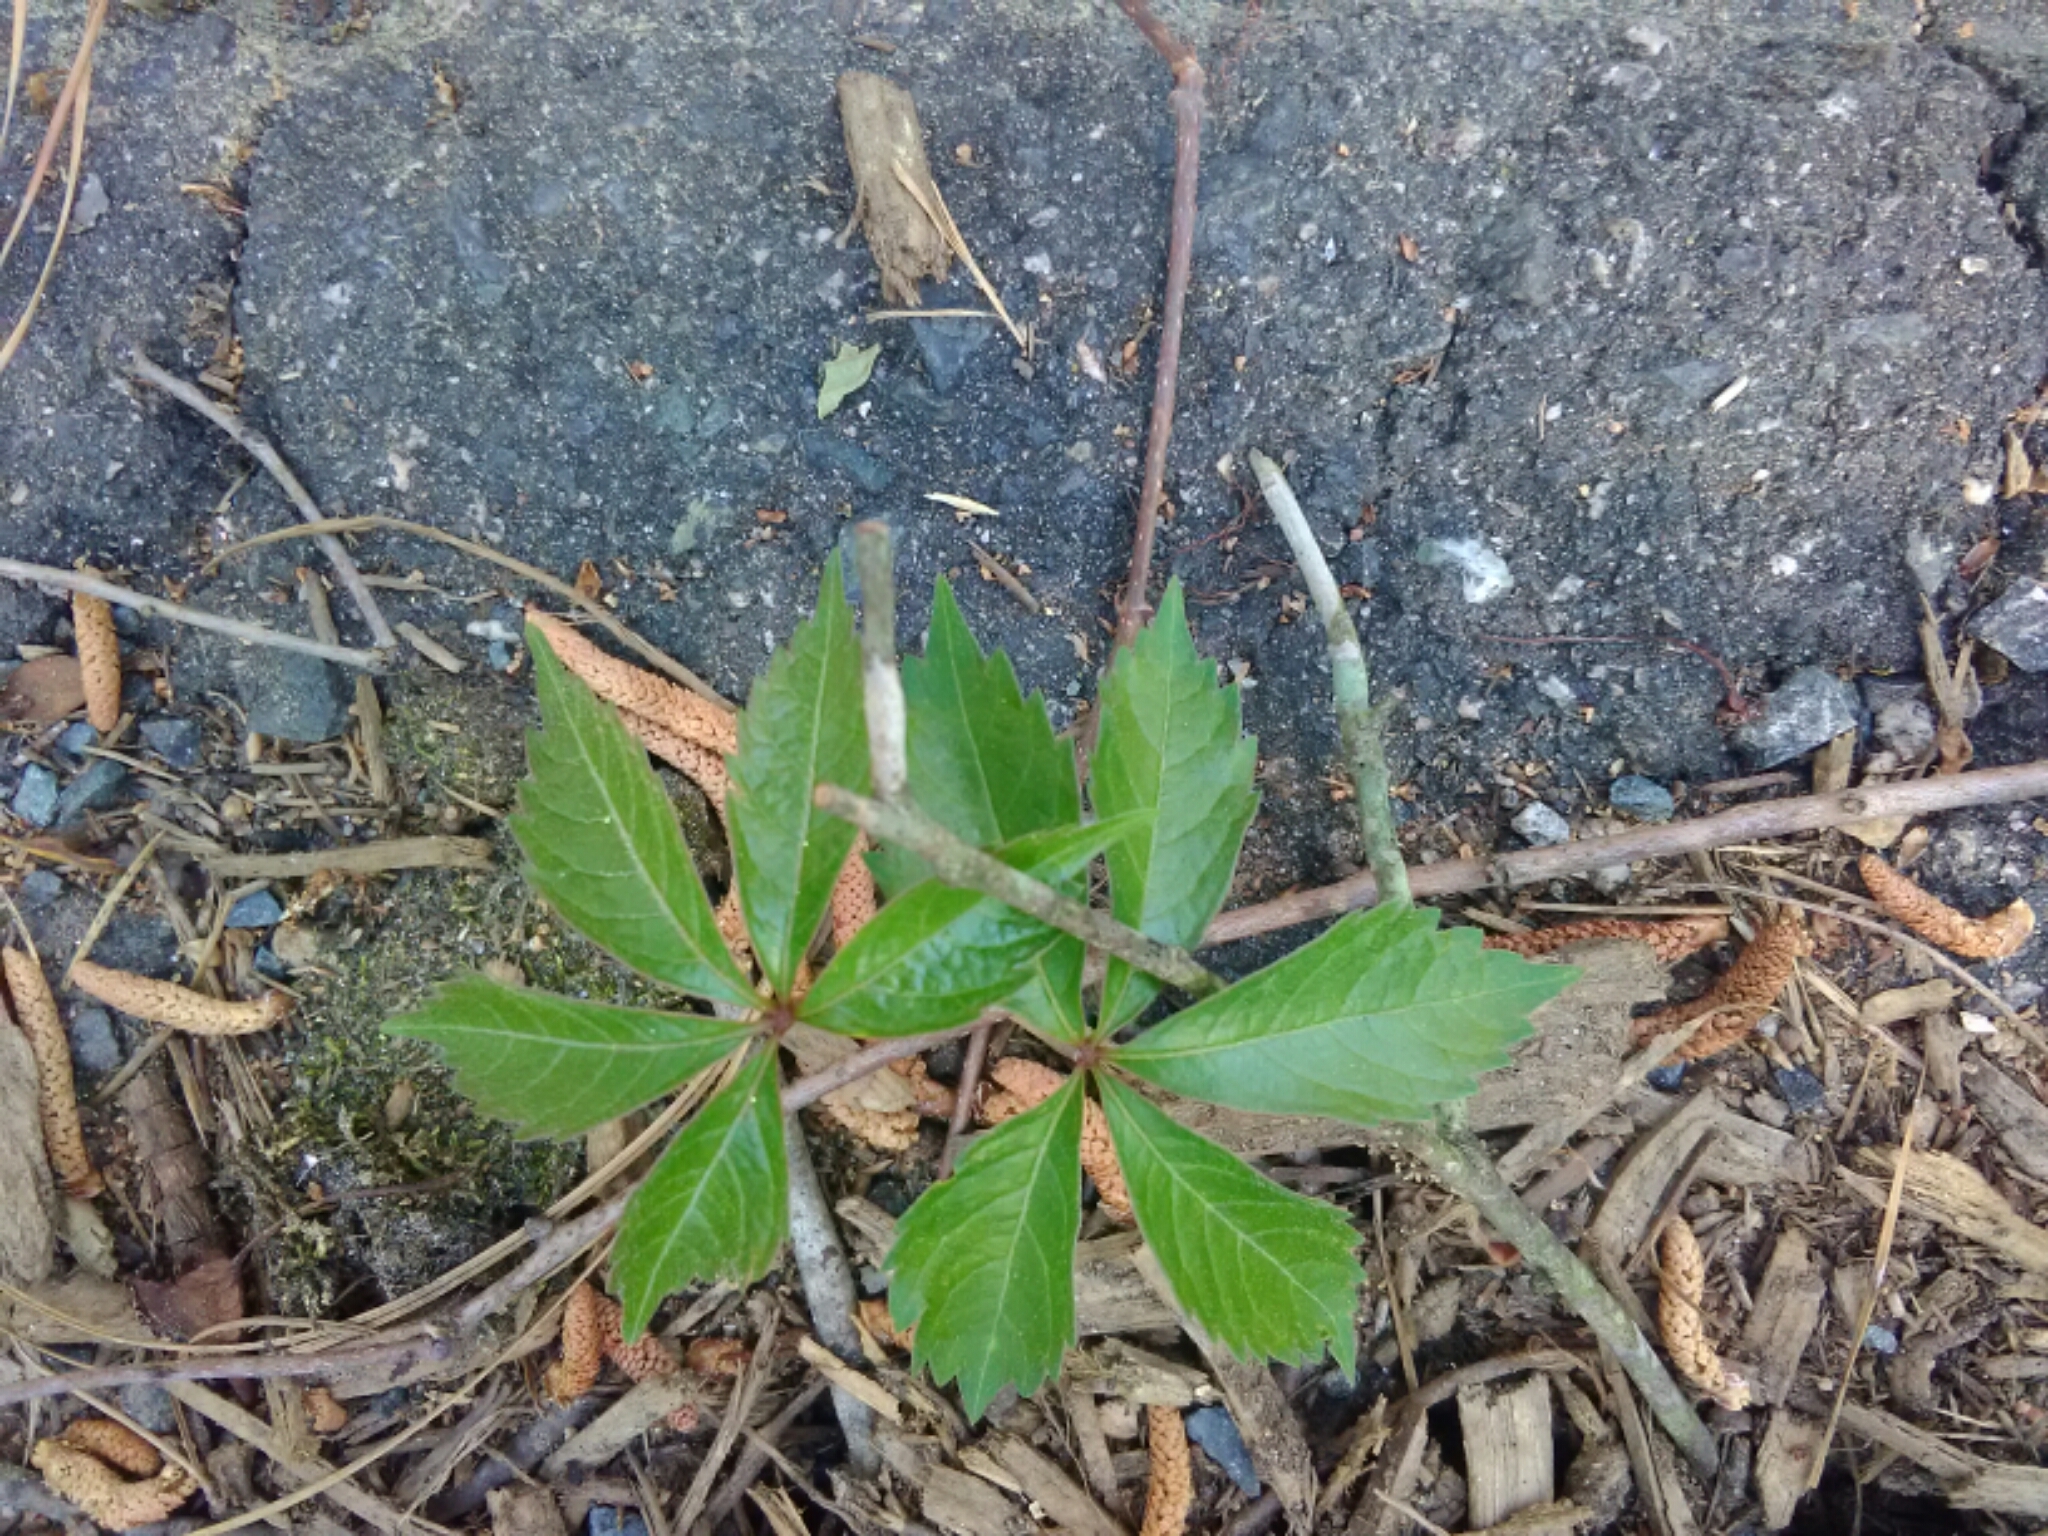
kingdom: Plantae
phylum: Tracheophyta
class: Magnoliopsida
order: Vitales
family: Vitaceae
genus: Parthenocissus
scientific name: Parthenocissus quinquefolia
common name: Virginia-creeper
